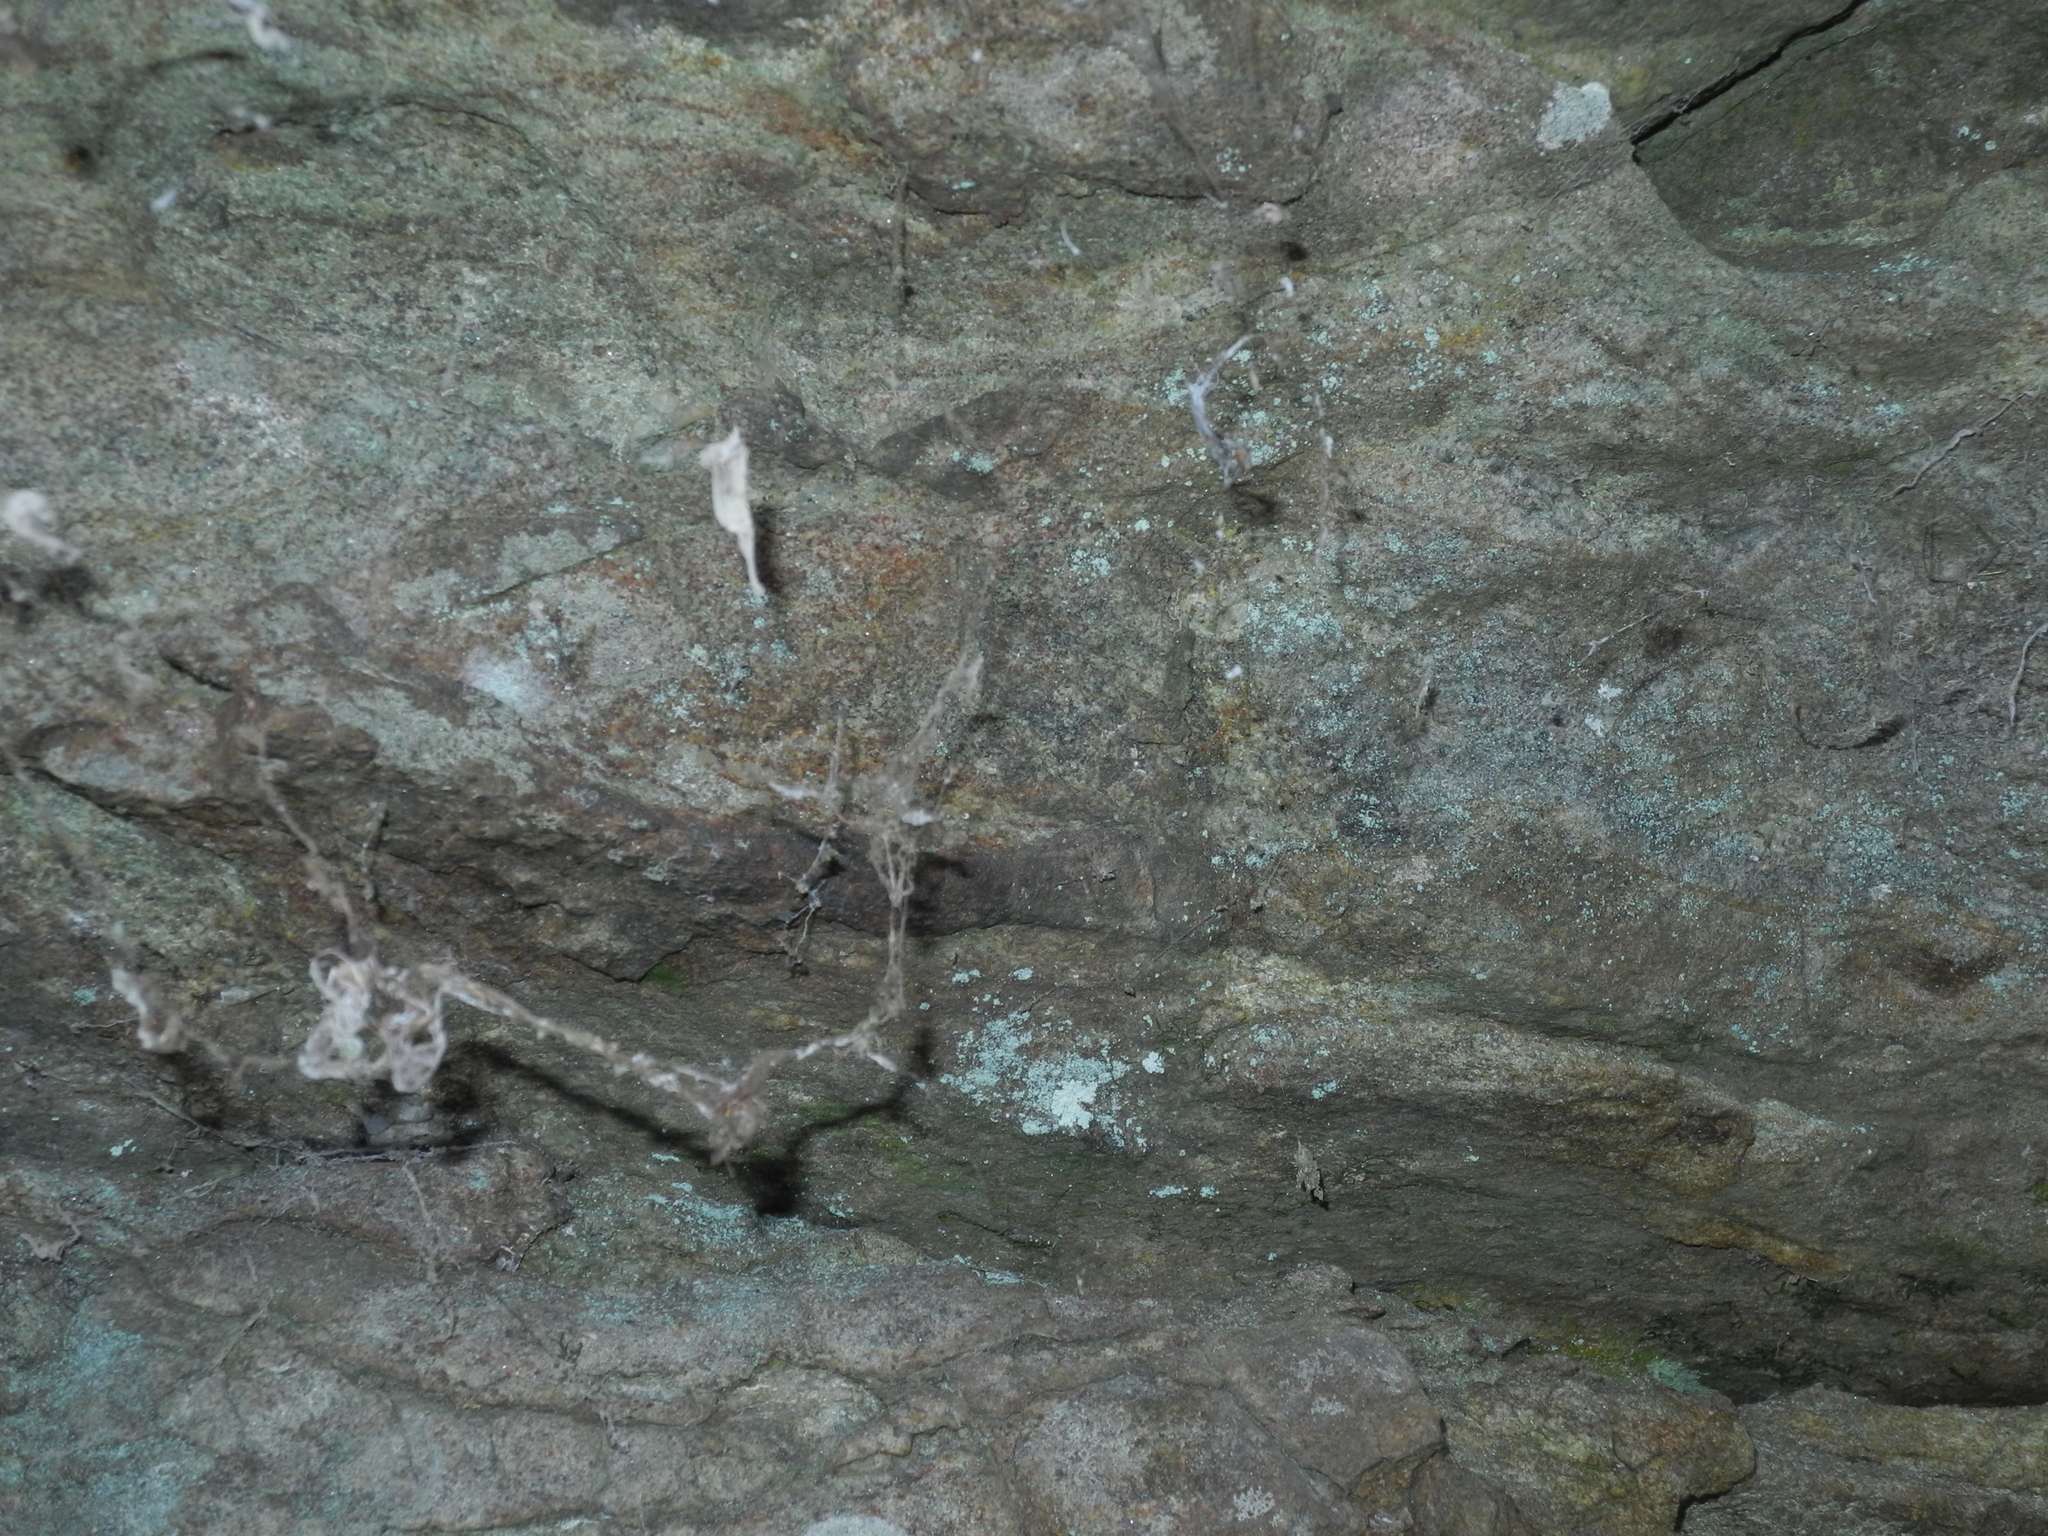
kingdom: Animalia
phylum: Arthropoda
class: Arachnida
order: Araneae
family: Hypochilidae
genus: Hypochilus
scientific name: Hypochilus pococki
